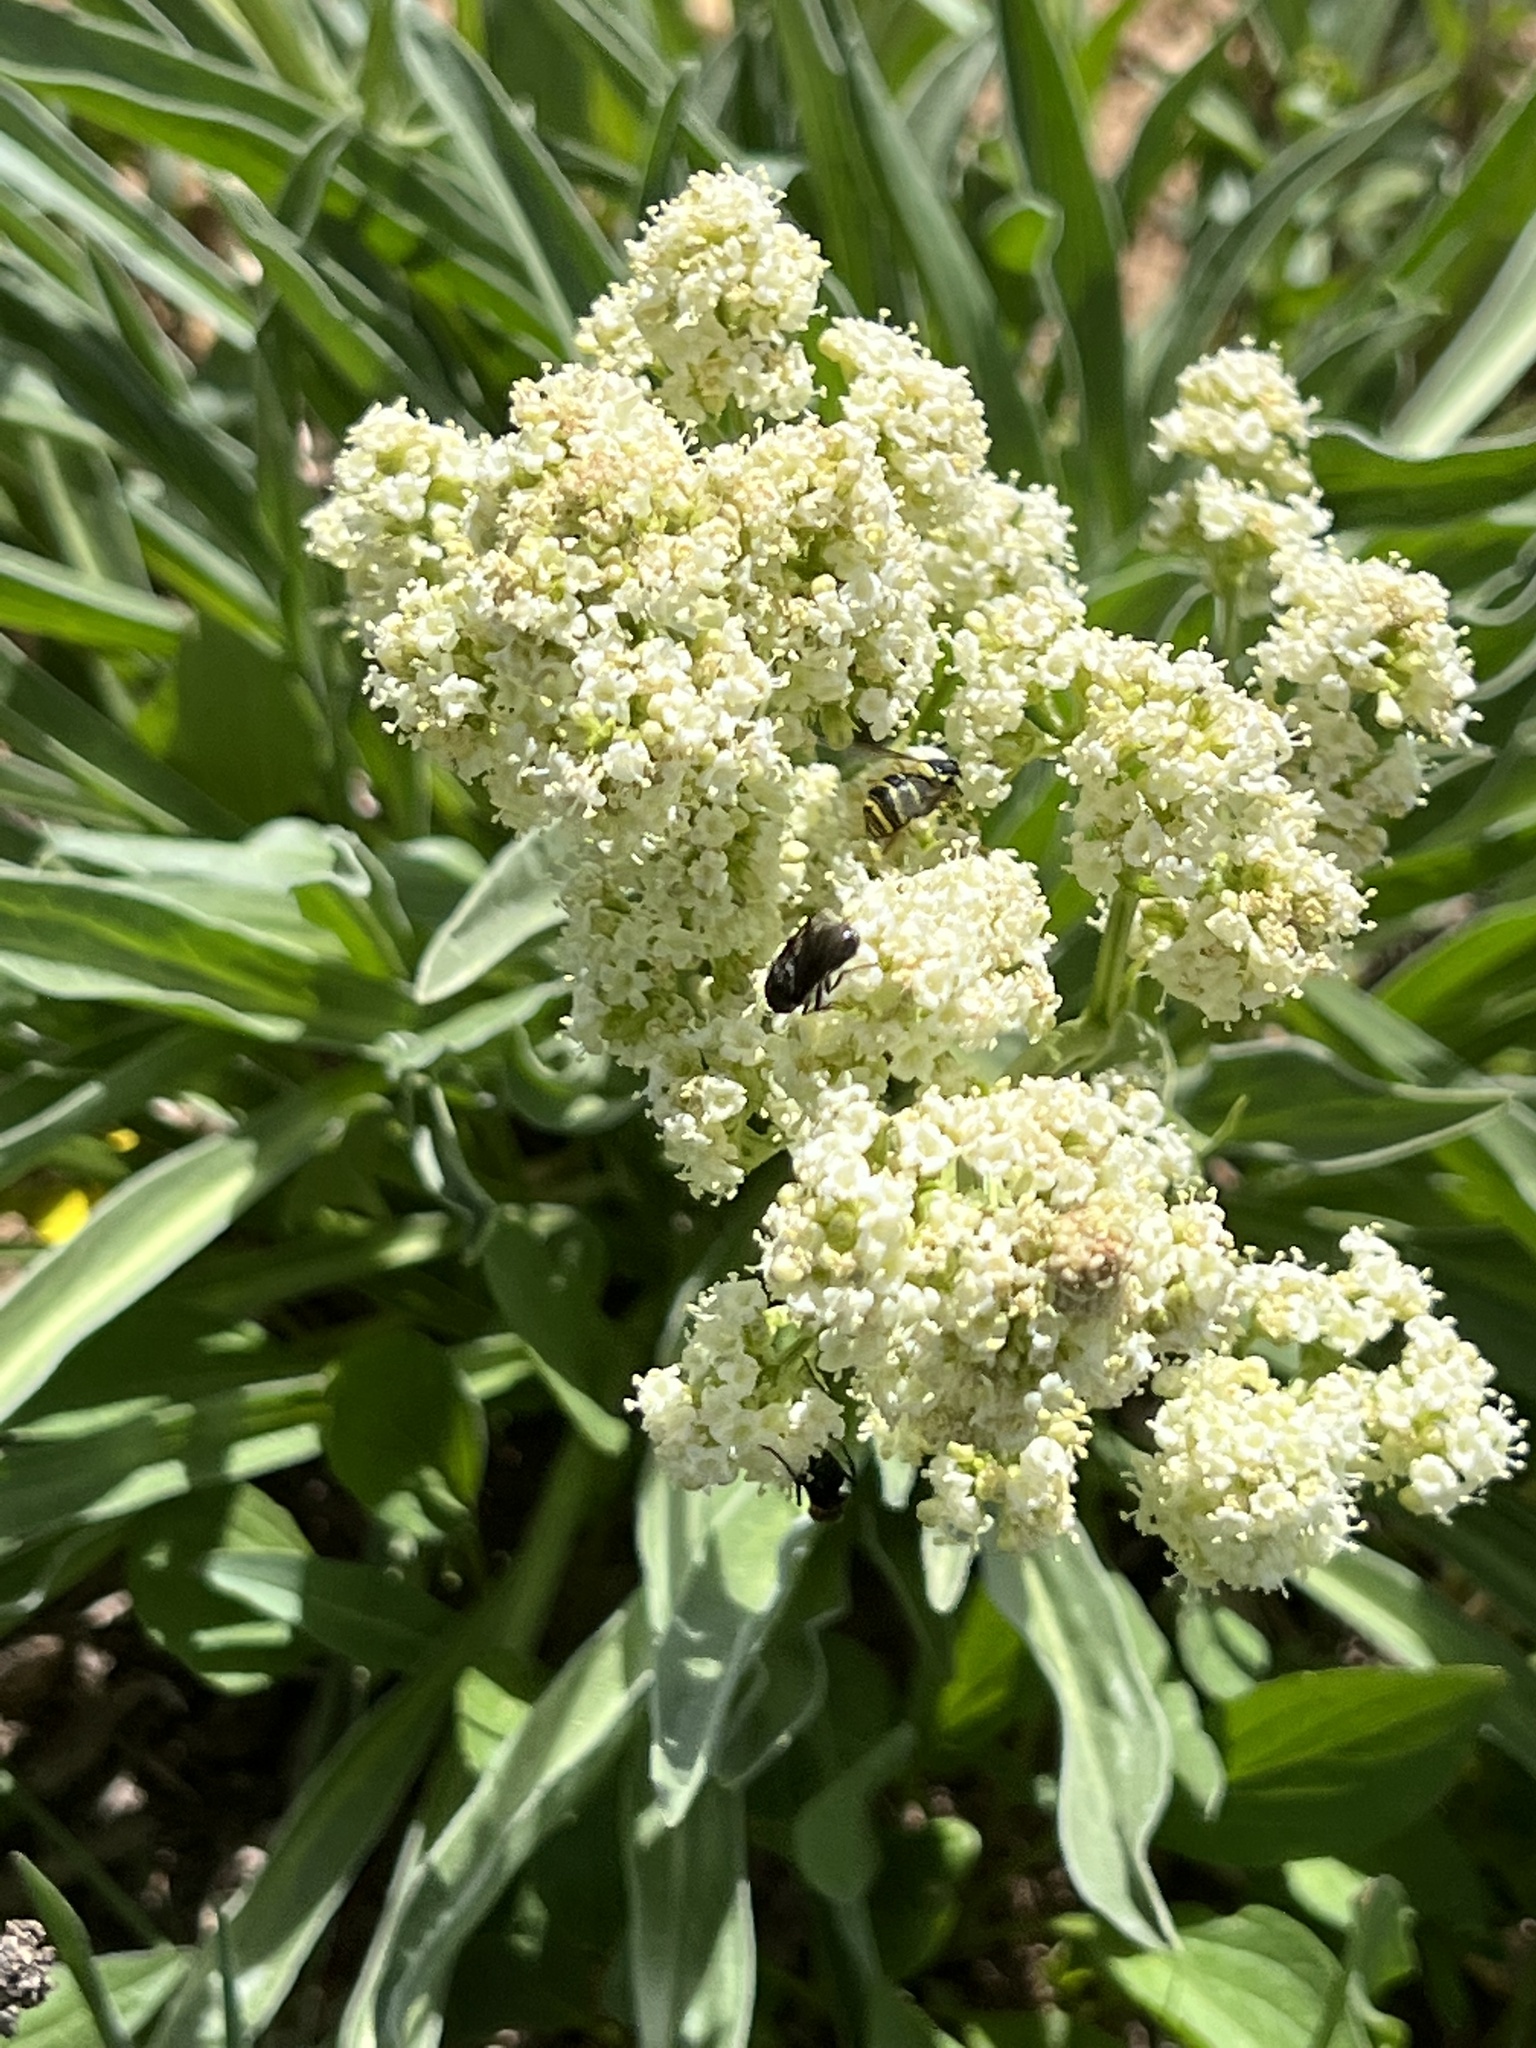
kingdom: Plantae
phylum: Tracheophyta
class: Magnoliopsida
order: Dipsacales
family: Caprifoliaceae
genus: Valeriana
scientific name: Valeriana edulis
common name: Taproot valerian
